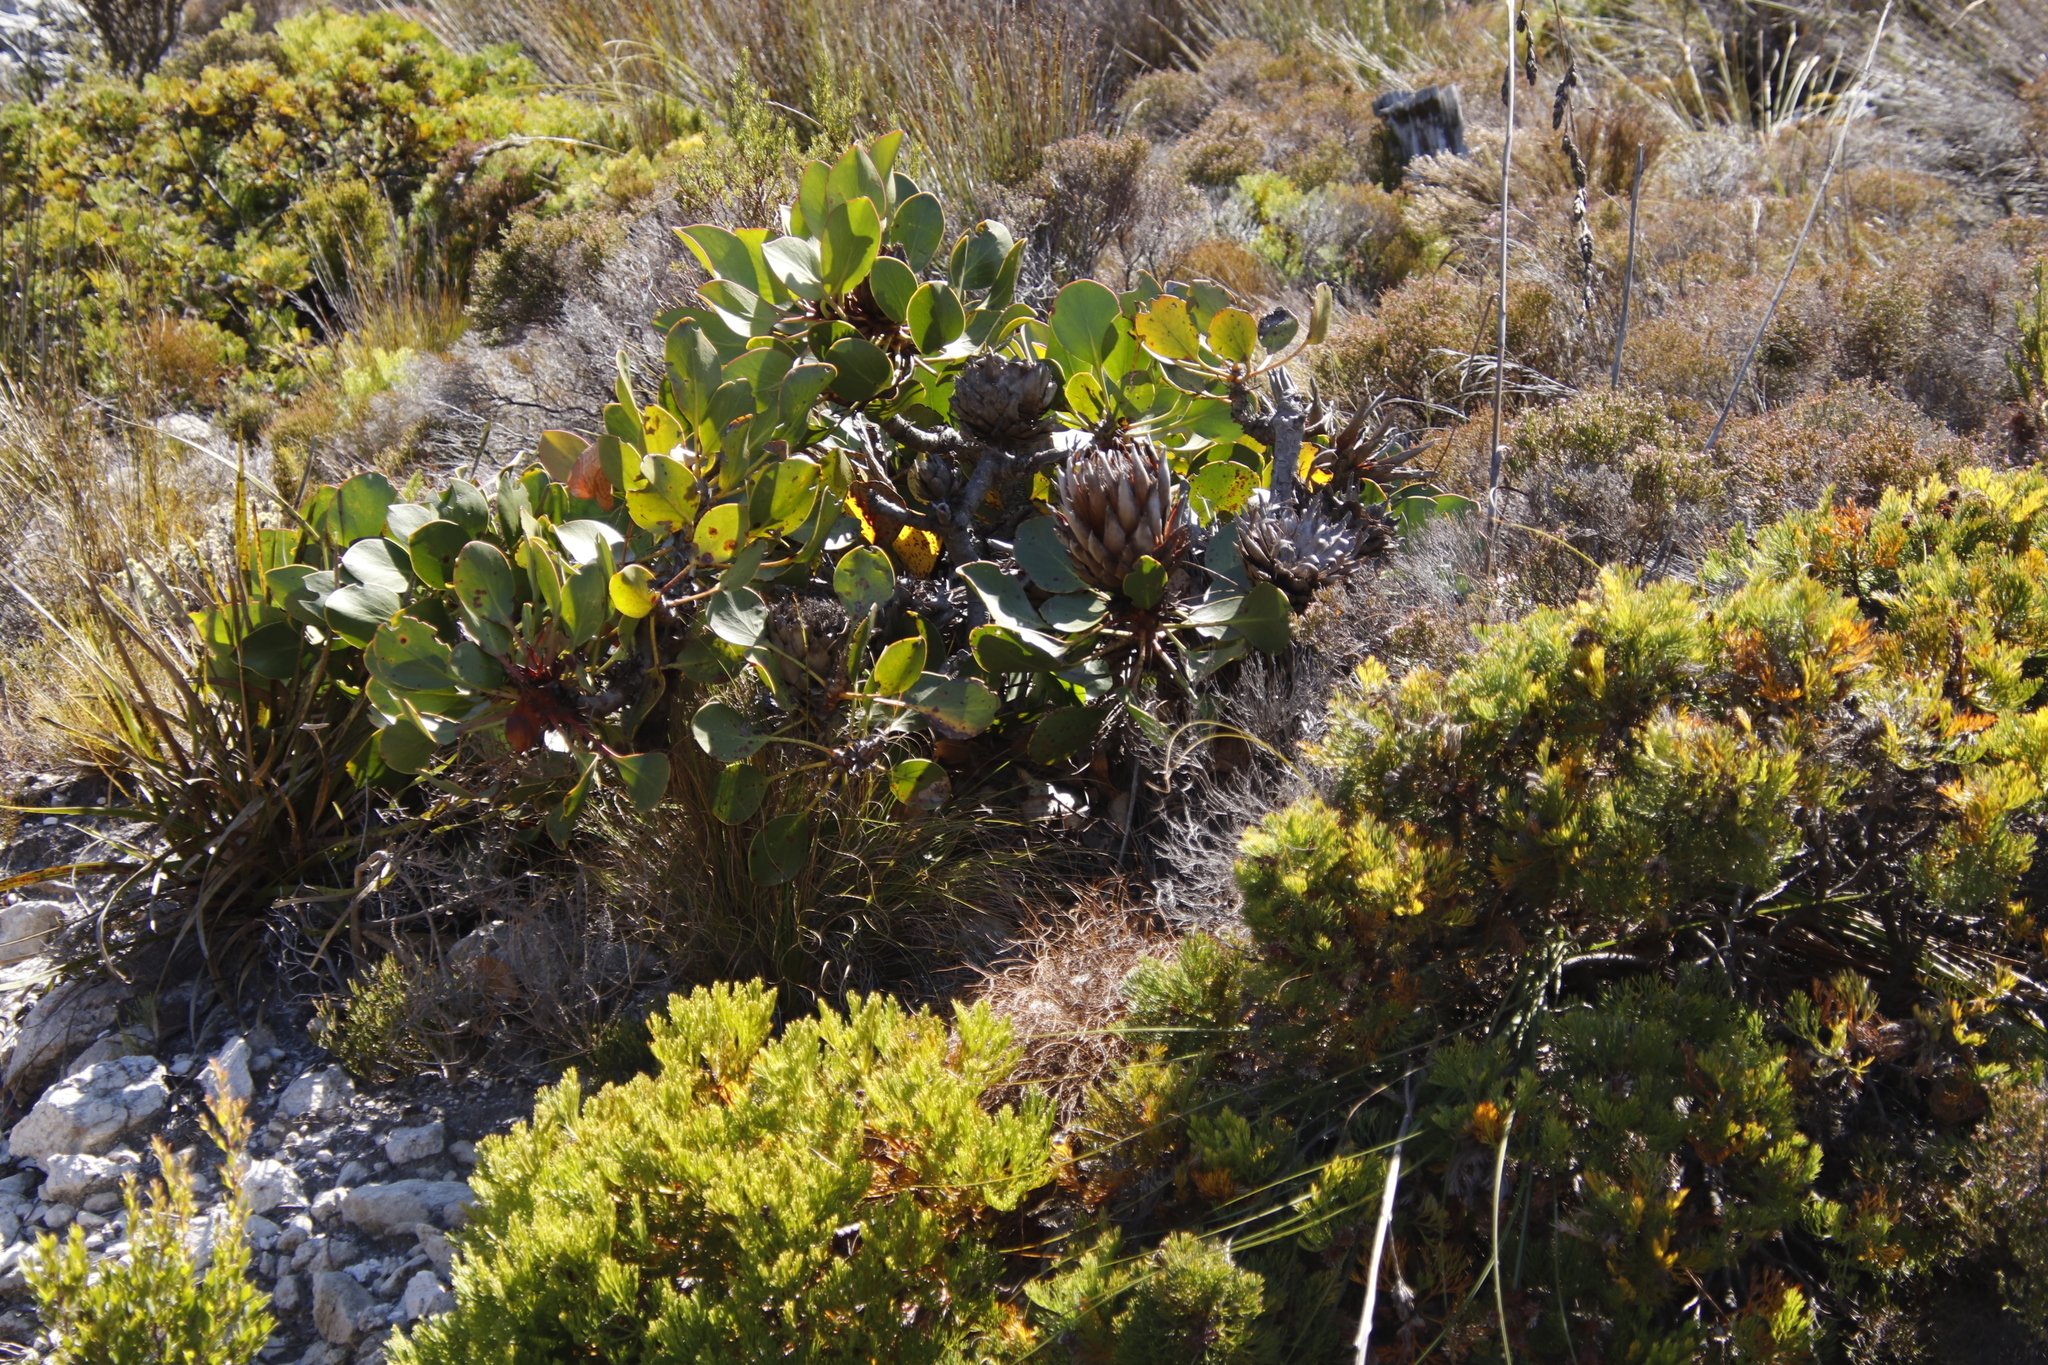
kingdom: Plantae
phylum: Tracheophyta
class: Magnoliopsida
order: Proteales
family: Proteaceae
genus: Protea
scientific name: Protea cynaroides
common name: King protea
